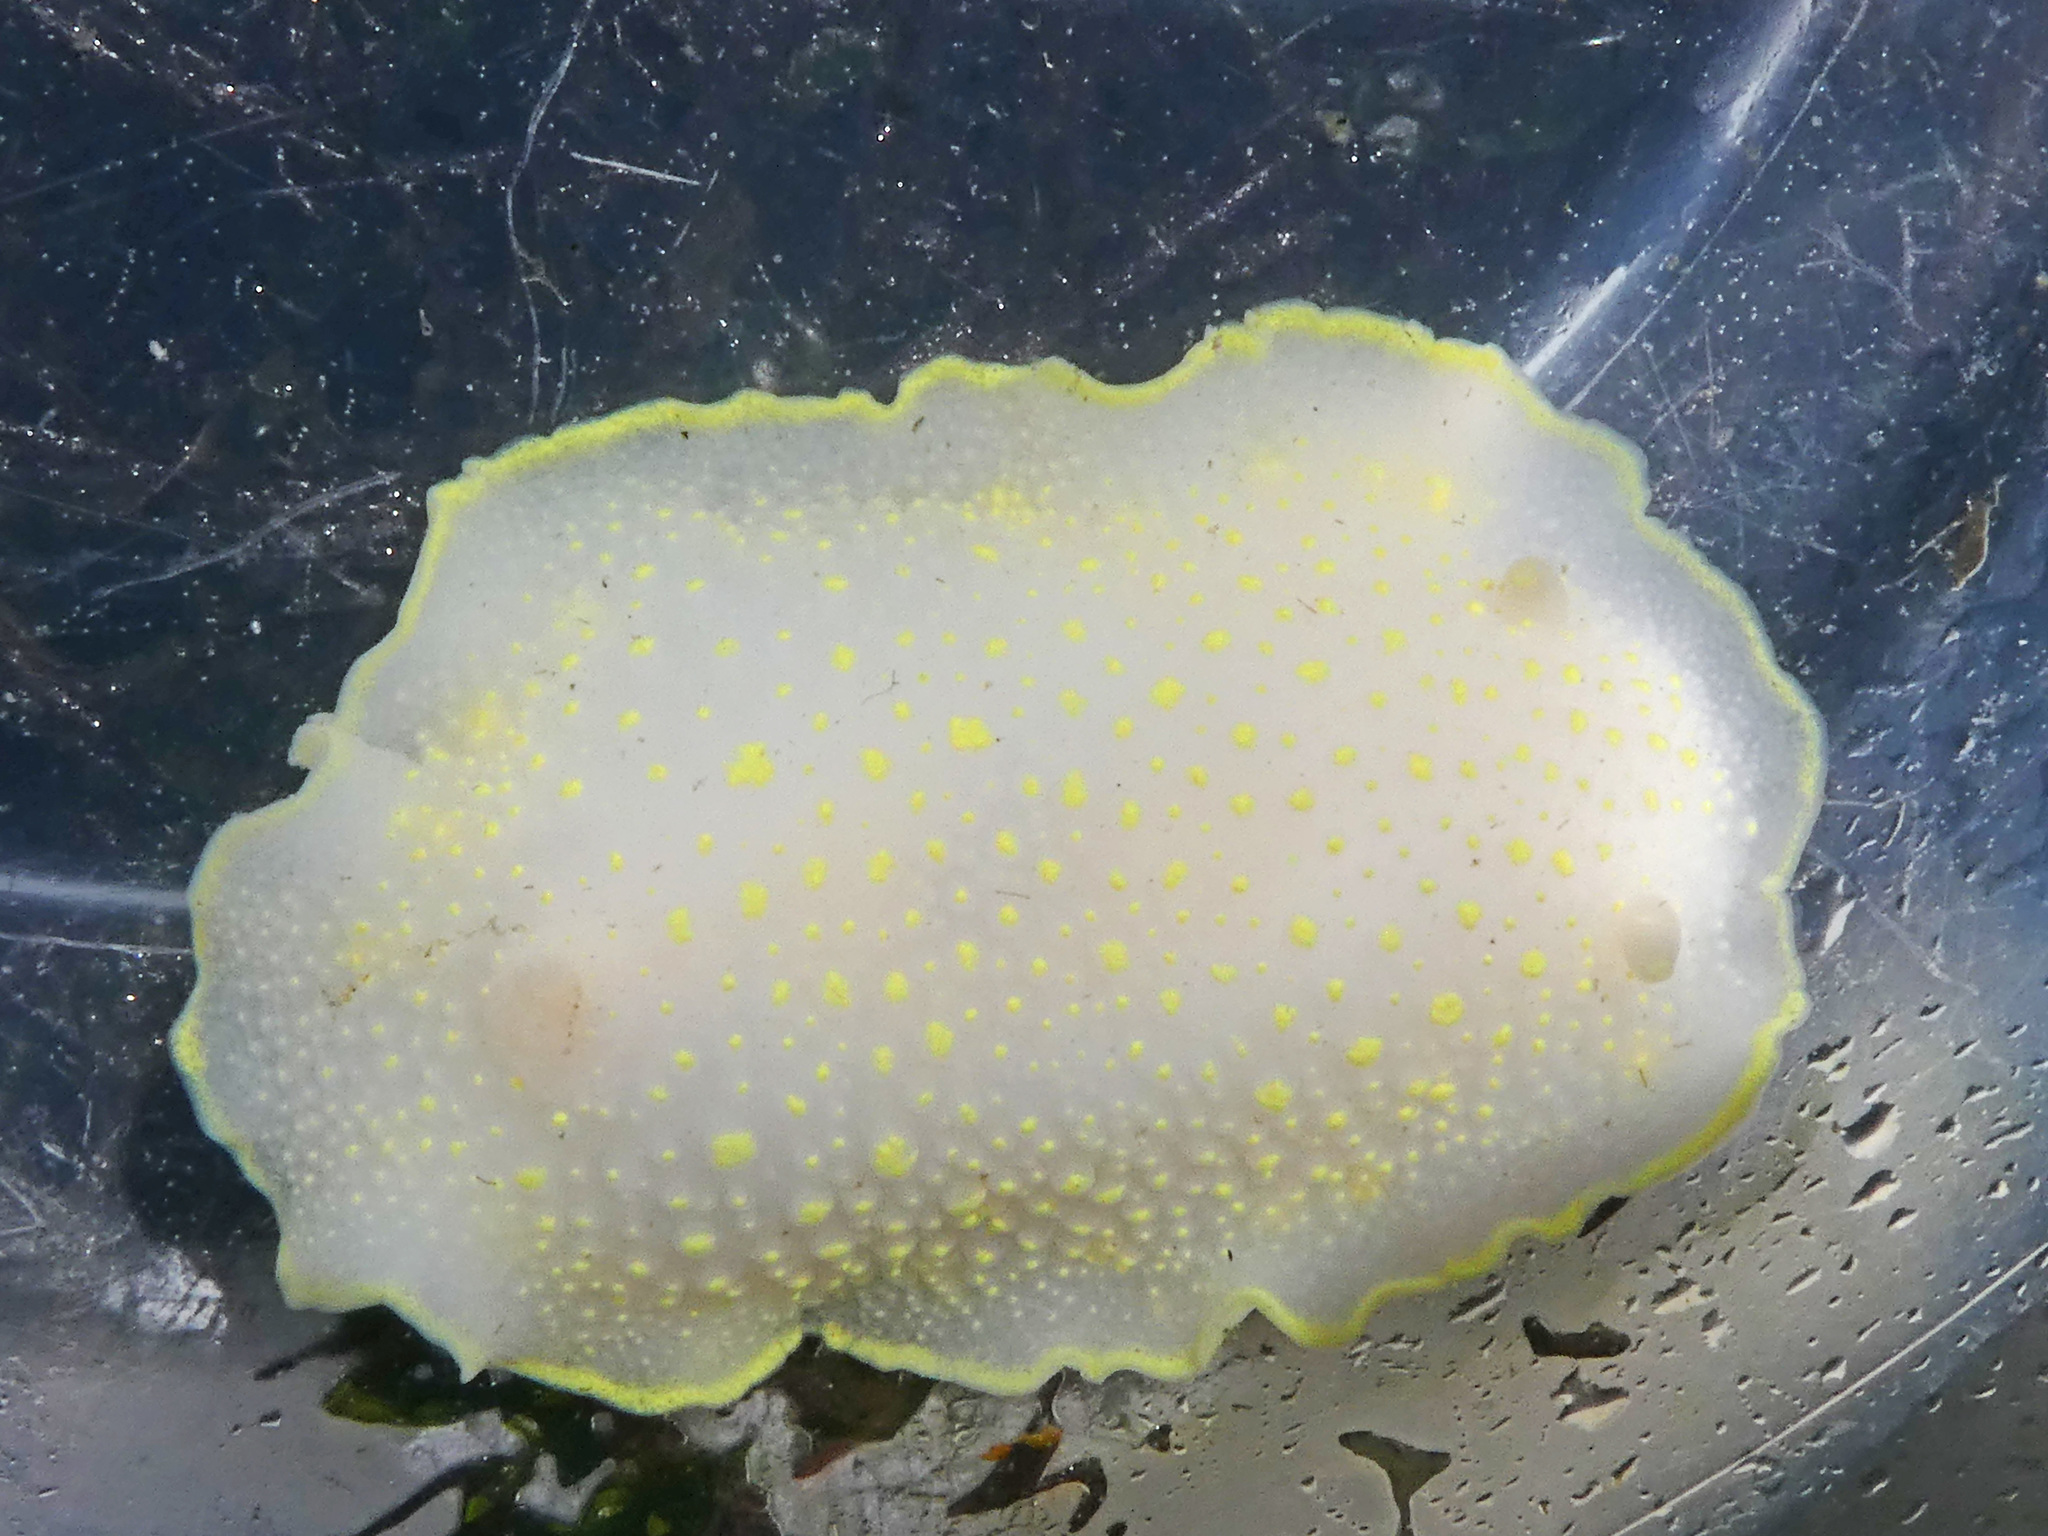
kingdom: Animalia
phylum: Mollusca
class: Gastropoda
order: Nudibranchia
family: Cadlinidae
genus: Cadlina
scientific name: Cadlina luteomarginata
